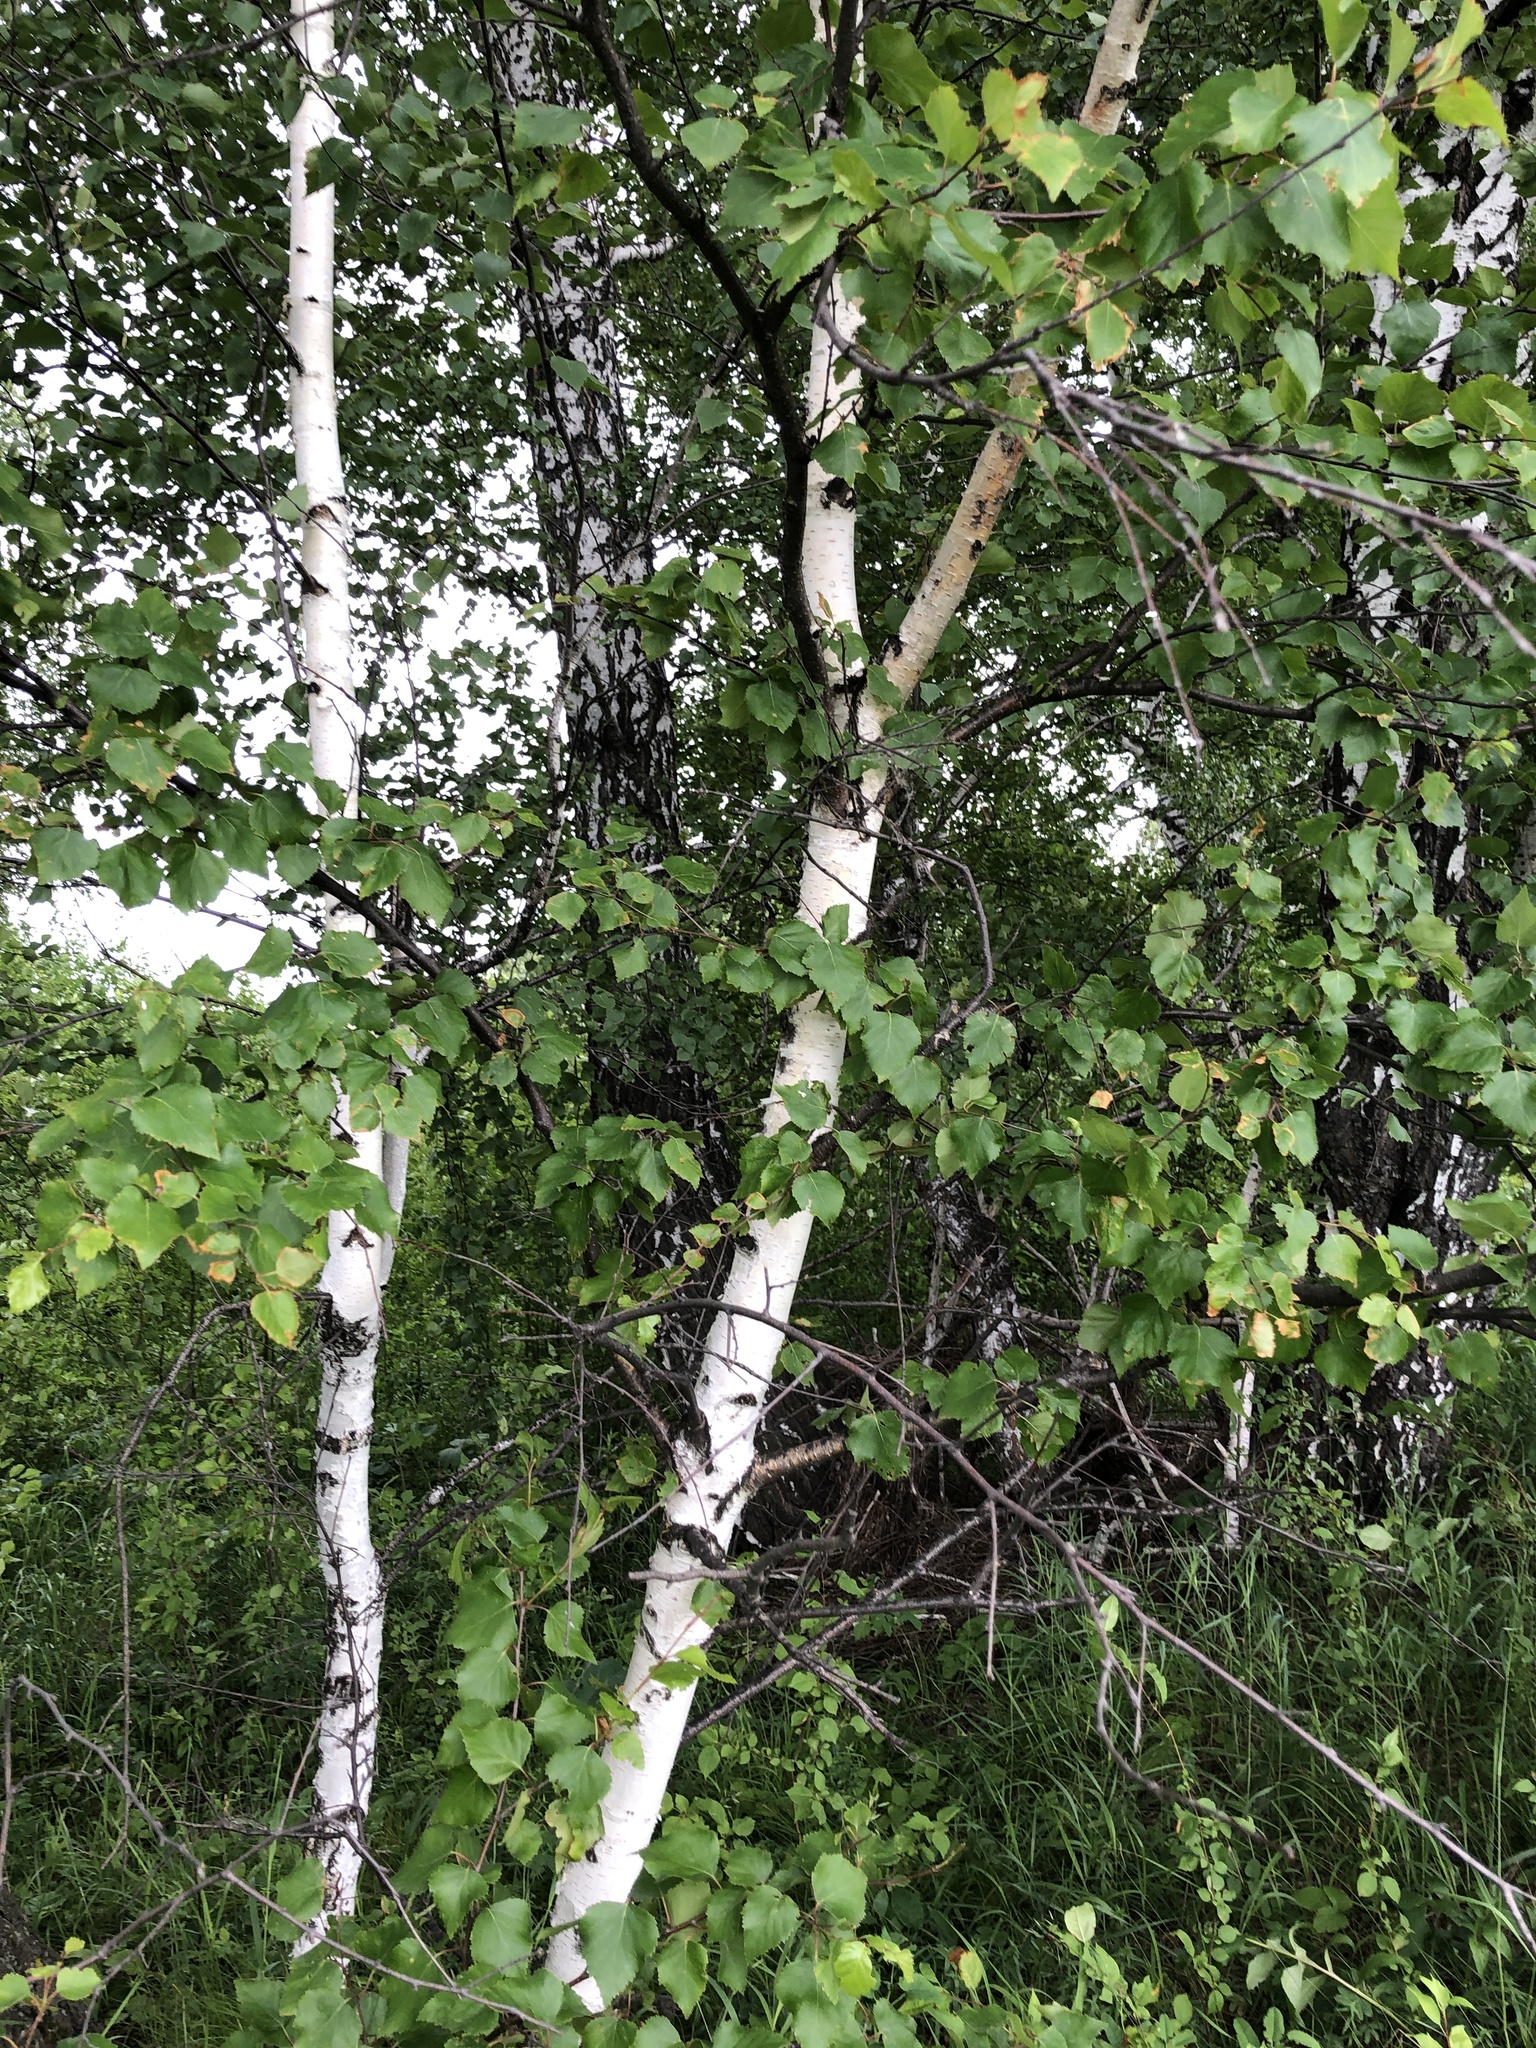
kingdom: Plantae
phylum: Tracheophyta
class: Magnoliopsida
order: Fagales
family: Betulaceae
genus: Betula
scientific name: Betula pendula
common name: Silver birch
